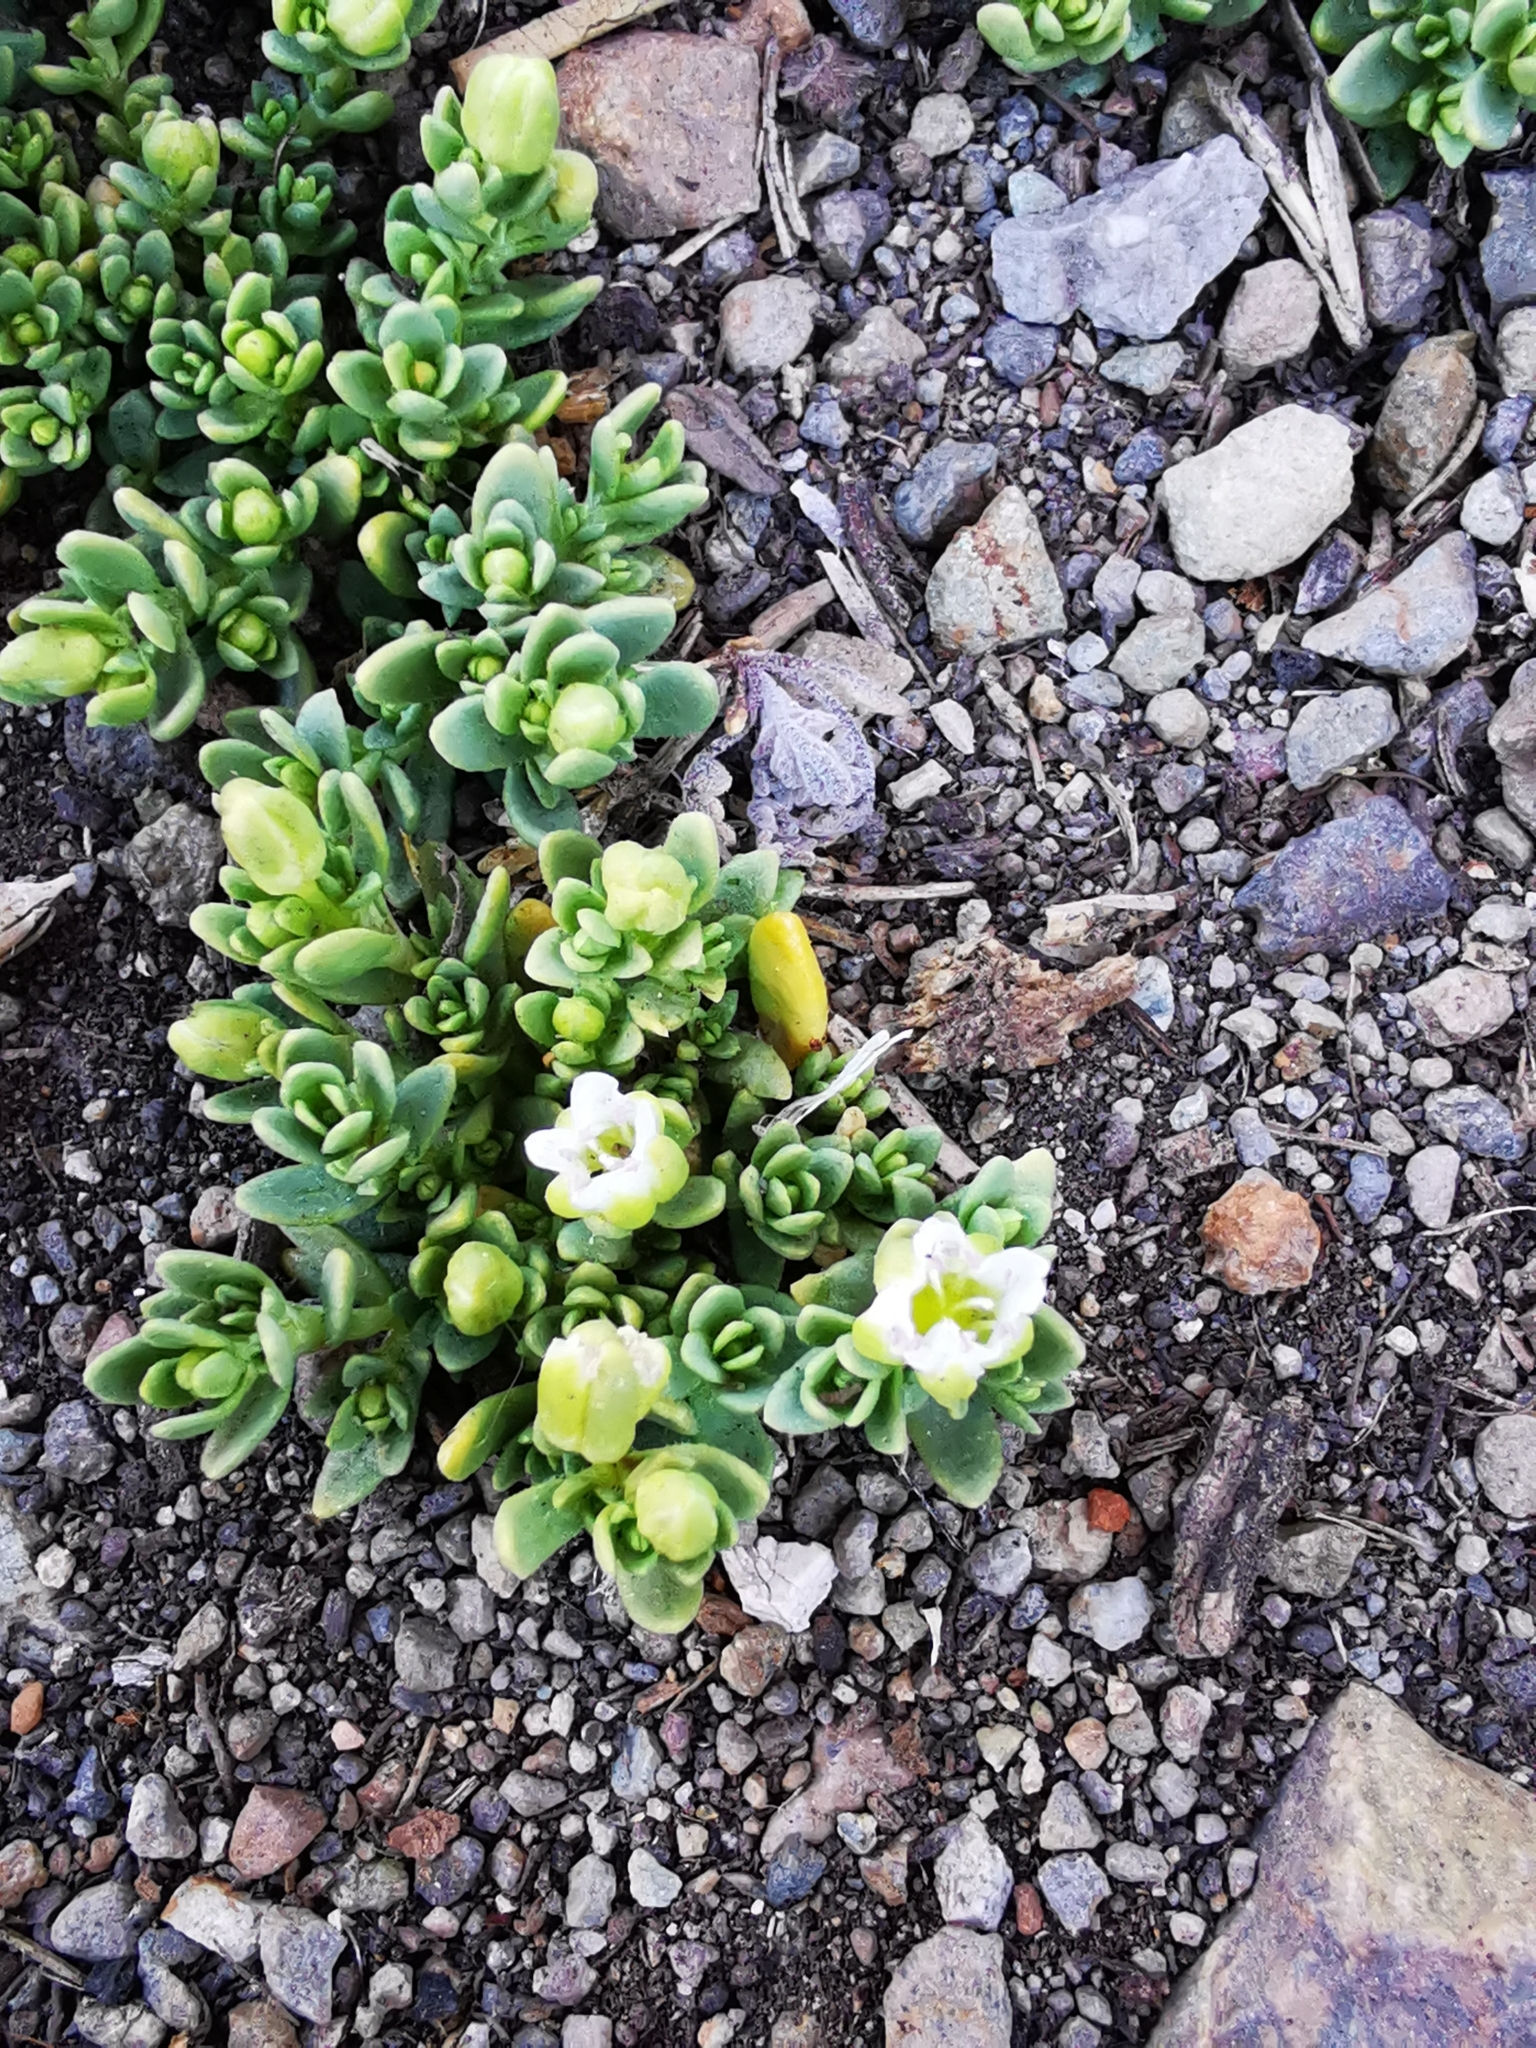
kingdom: Plantae
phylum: Tracheophyta
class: Magnoliopsida
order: Caryophyllales
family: Caryophyllaceae
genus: Arenaria
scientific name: Arenaria serpens
